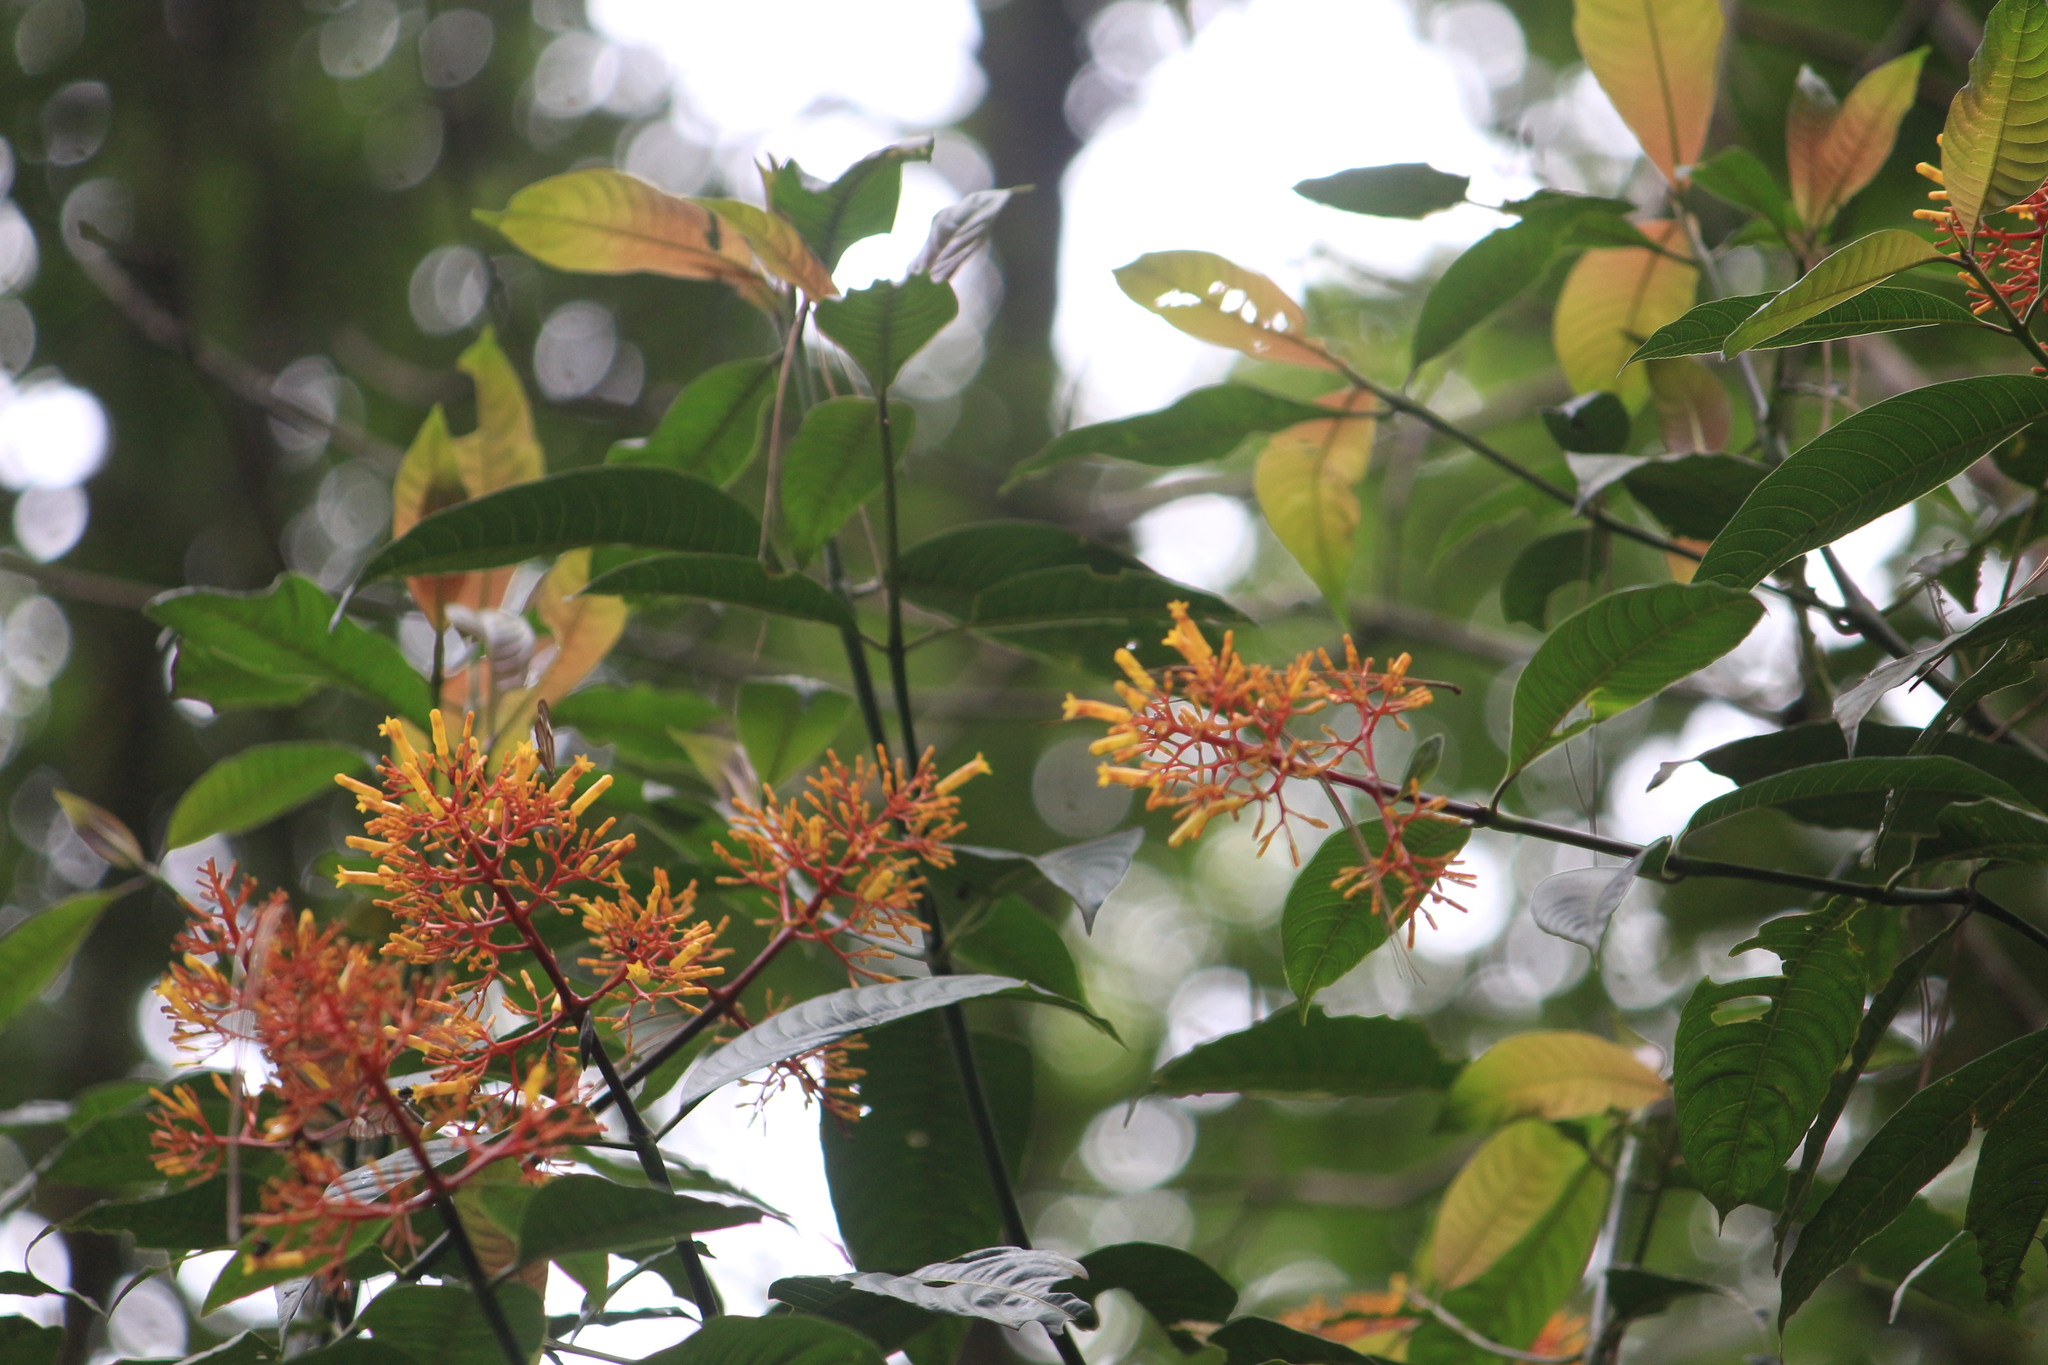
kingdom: Plantae
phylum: Tracheophyta
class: Magnoliopsida
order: Gentianales
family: Rubiaceae
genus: Palicourea
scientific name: Palicourea padifolia
